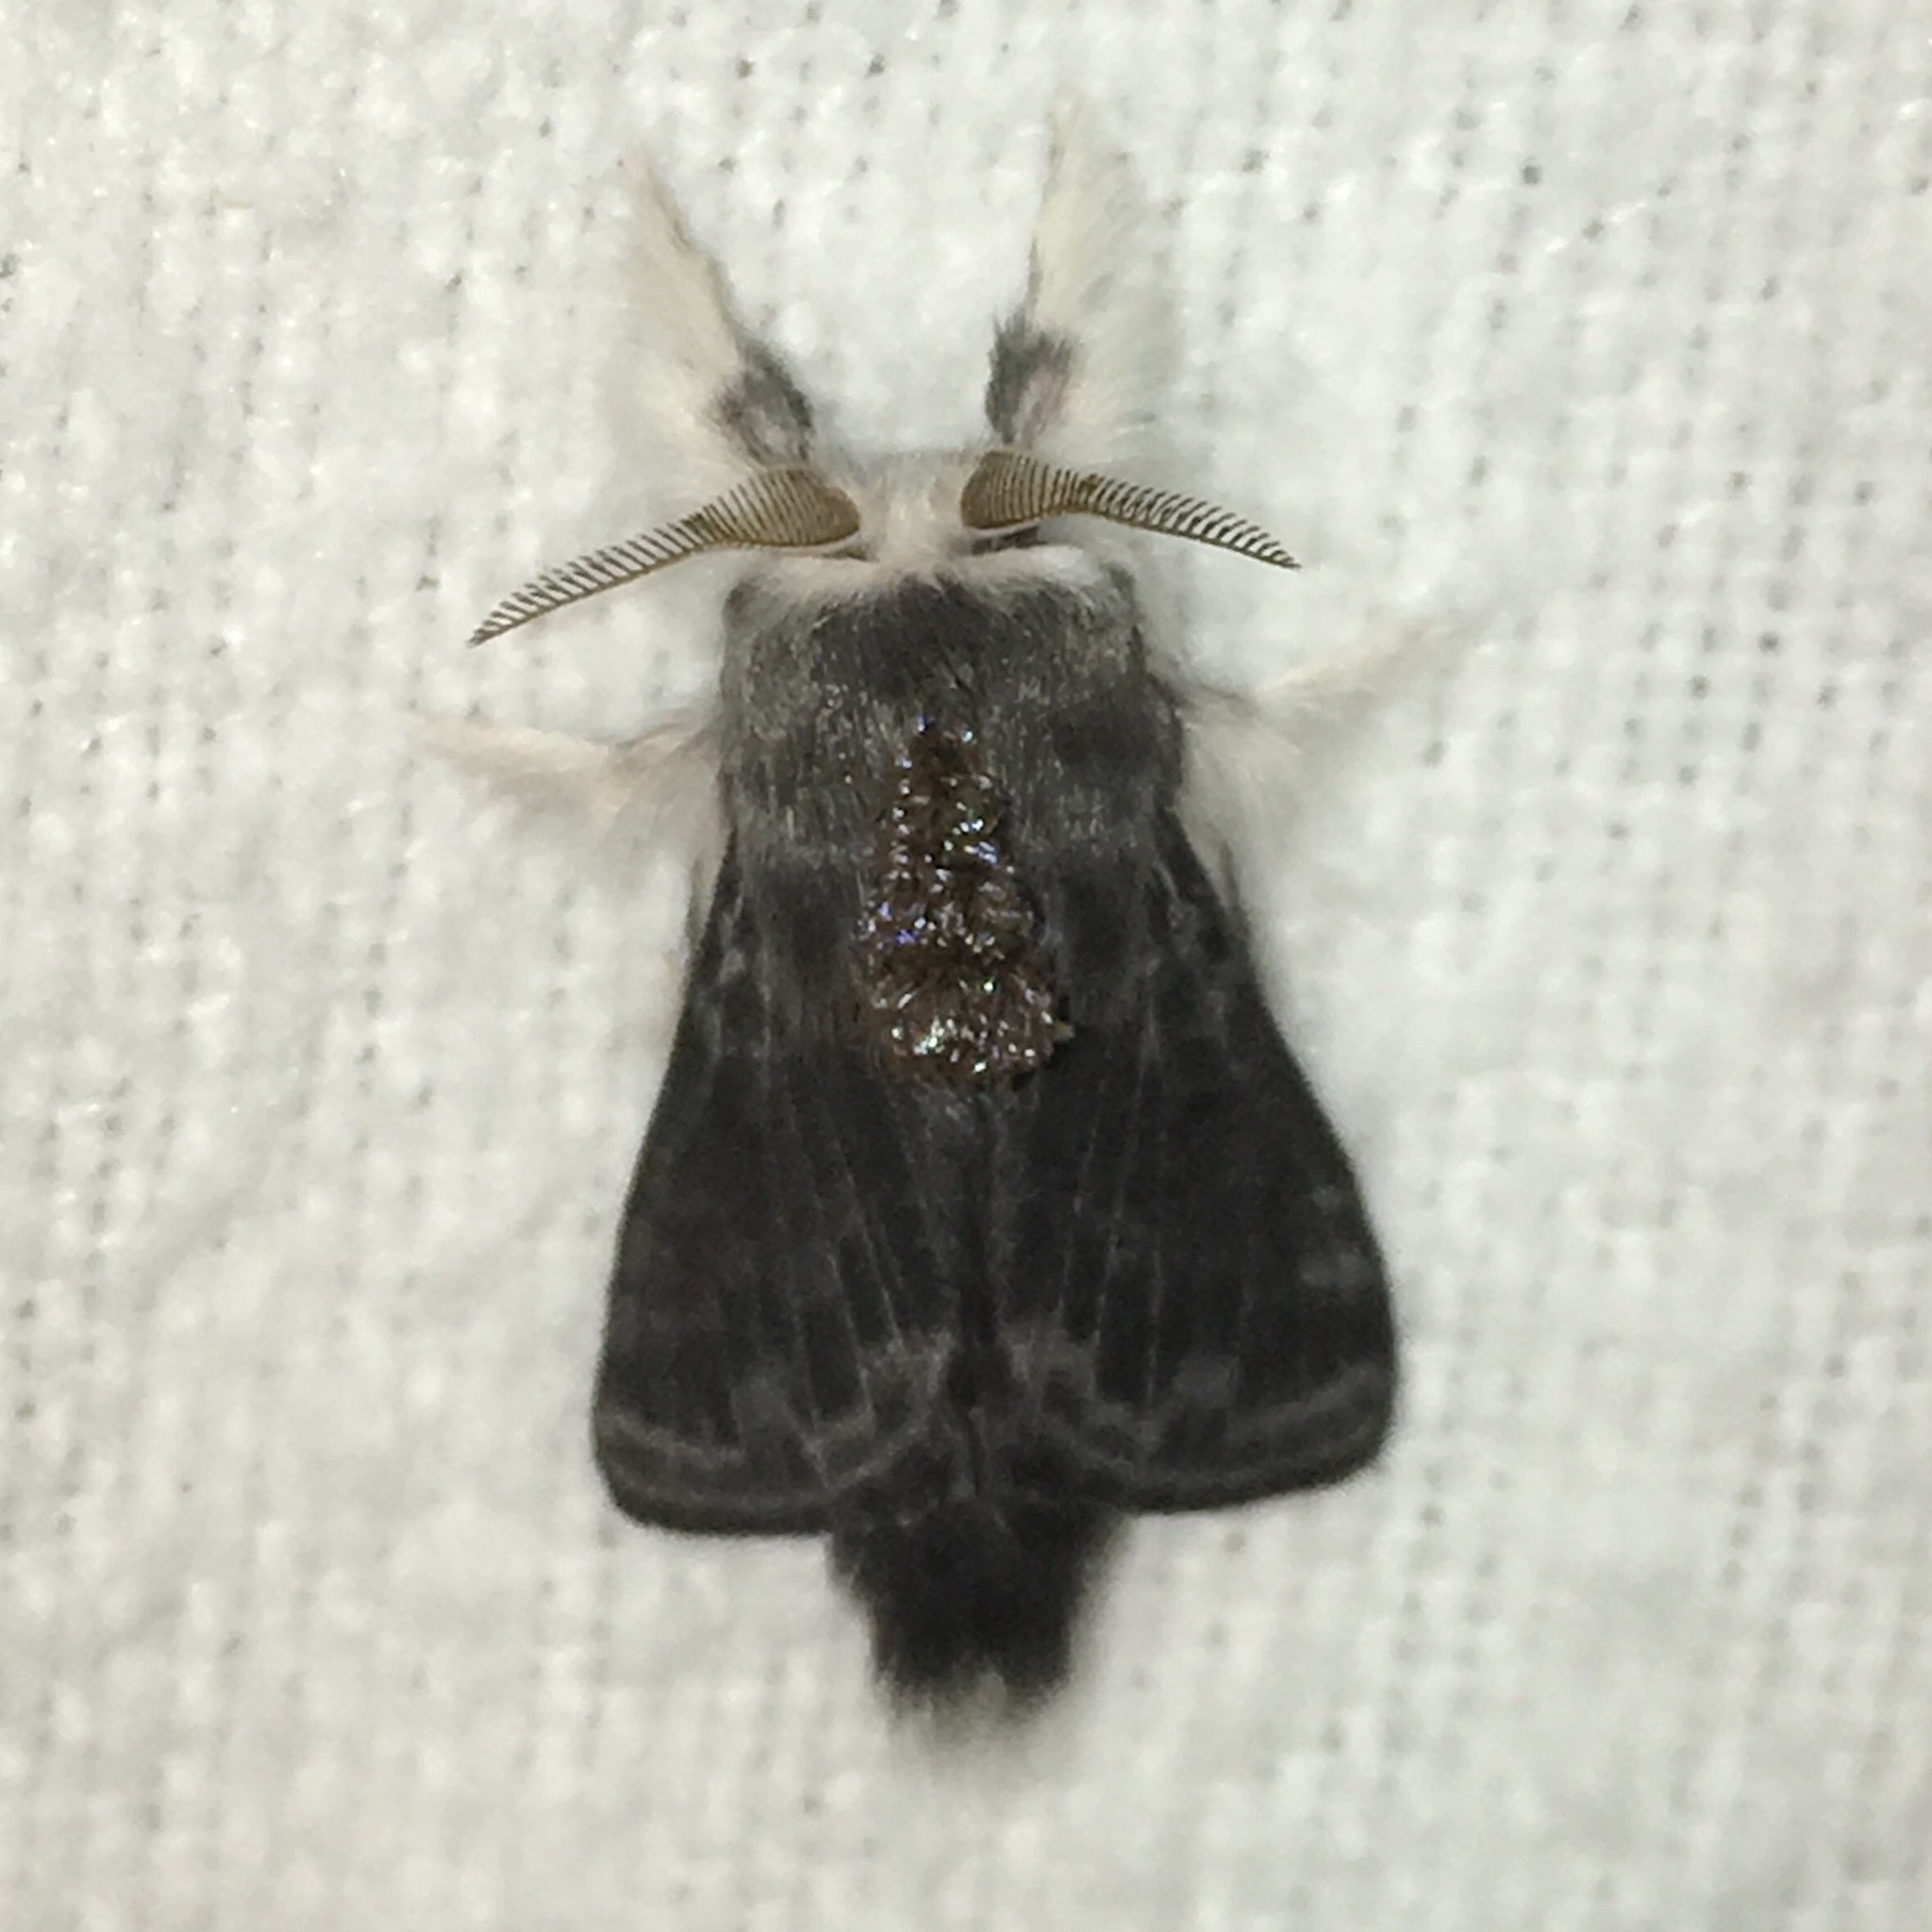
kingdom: Animalia
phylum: Arthropoda
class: Insecta
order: Lepidoptera
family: Lasiocampidae
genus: Tolype
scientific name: Tolype laricis
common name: Larch tolype moth
